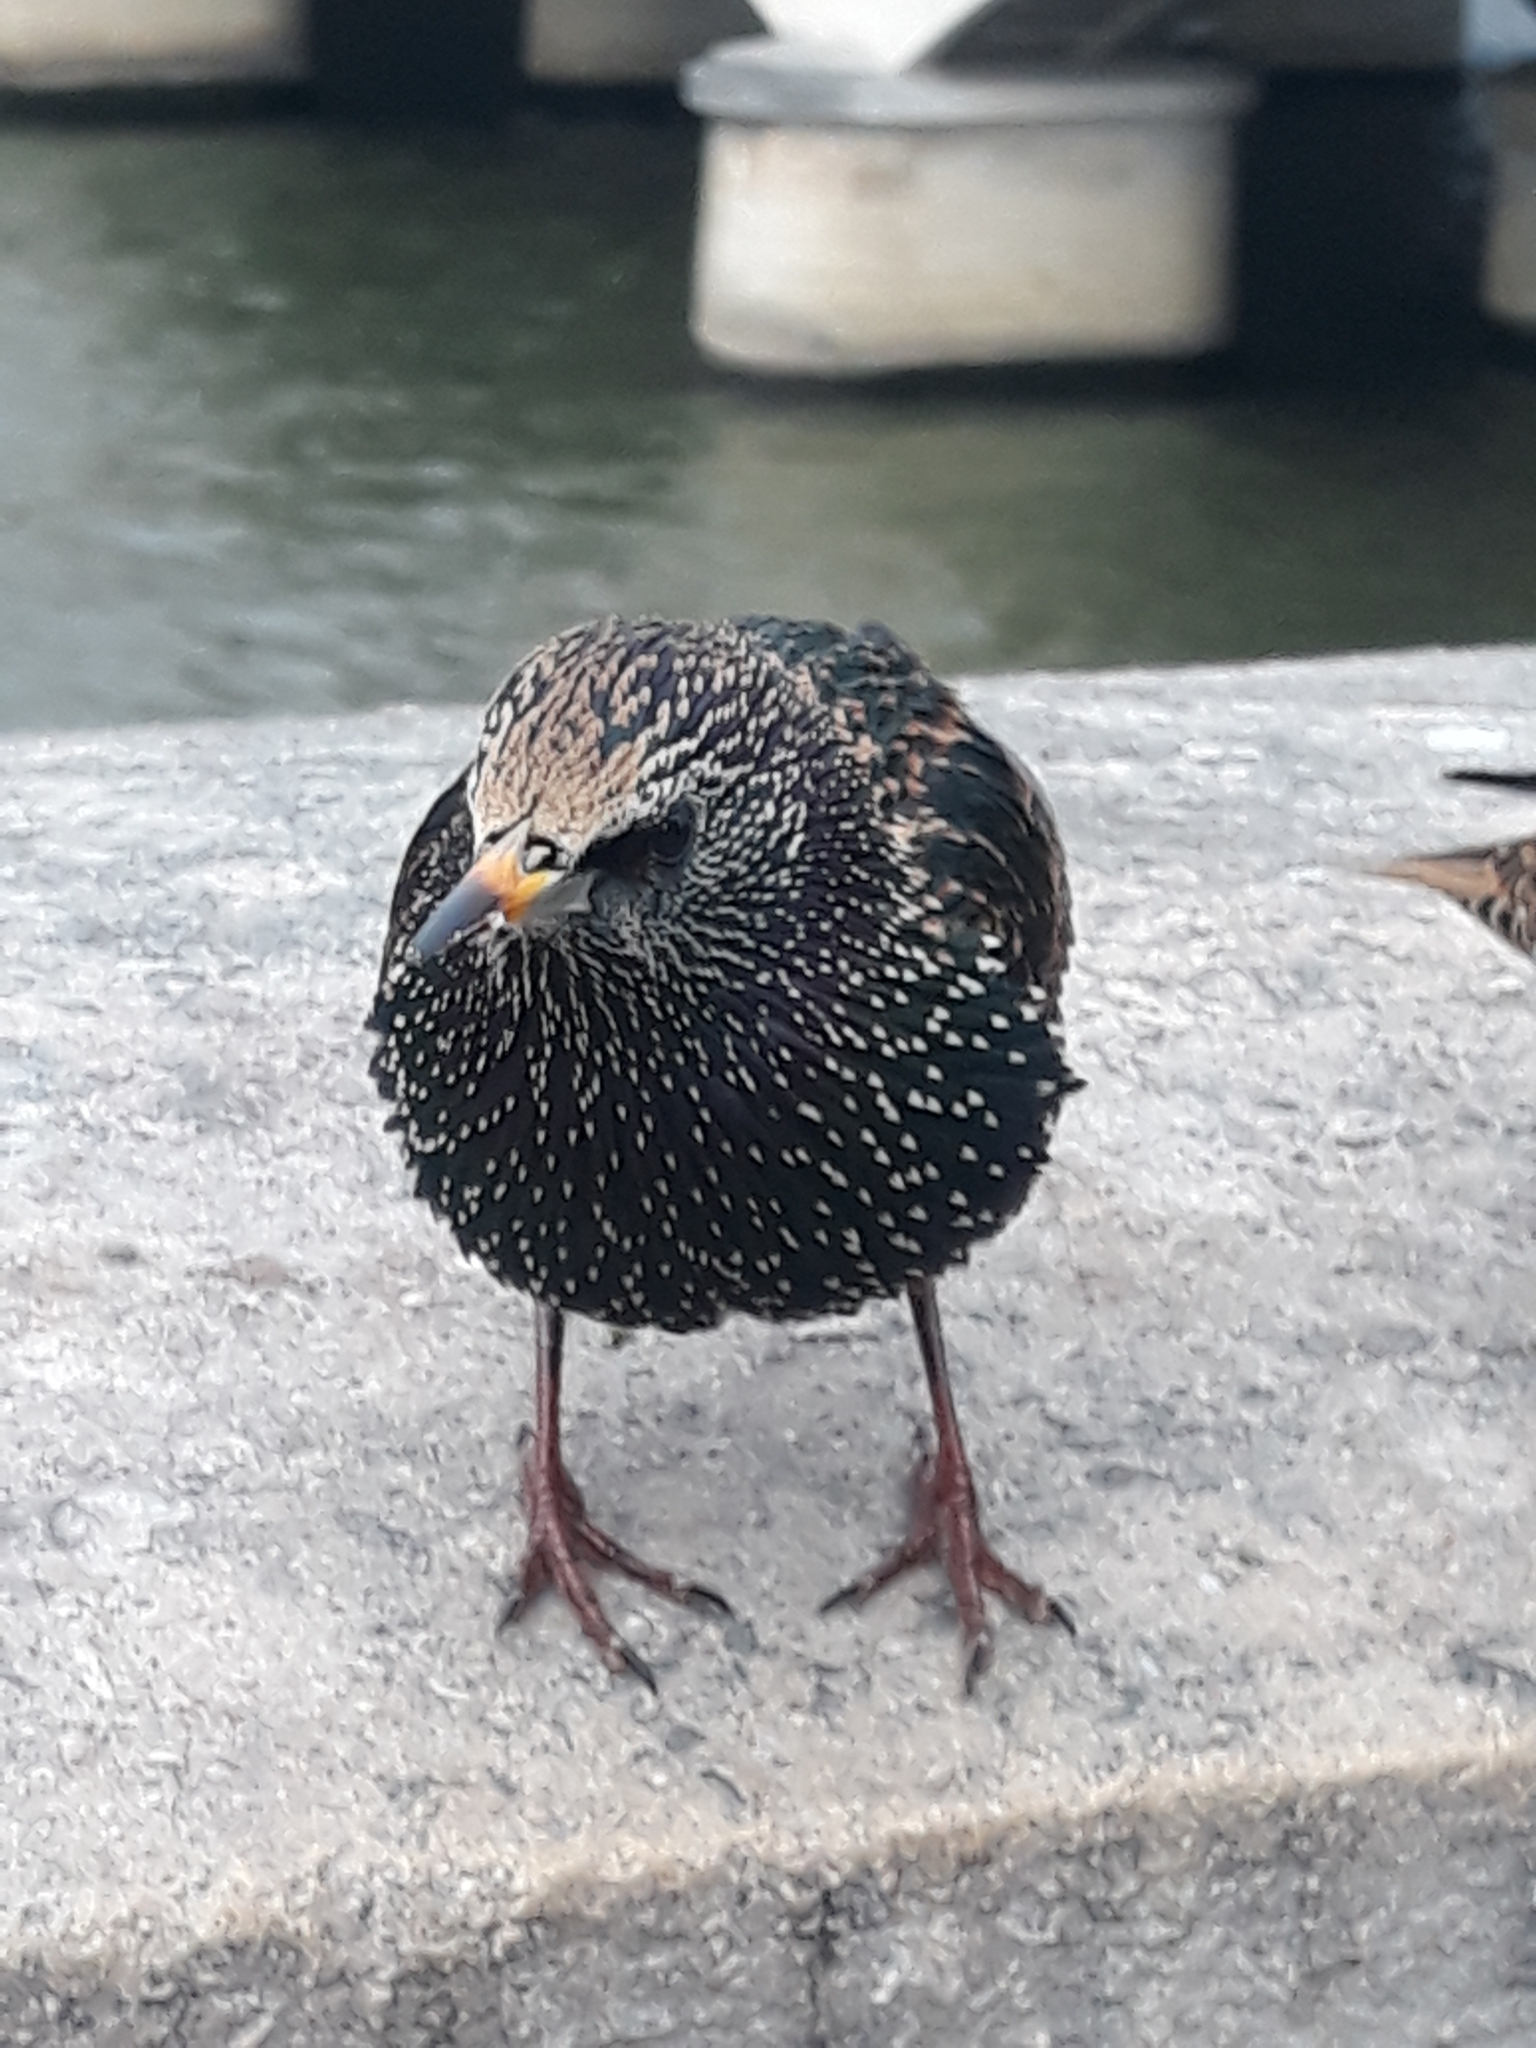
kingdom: Animalia
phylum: Chordata
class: Aves
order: Passeriformes
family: Sturnidae
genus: Sturnus
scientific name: Sturnus vulgaris
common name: Common starling
